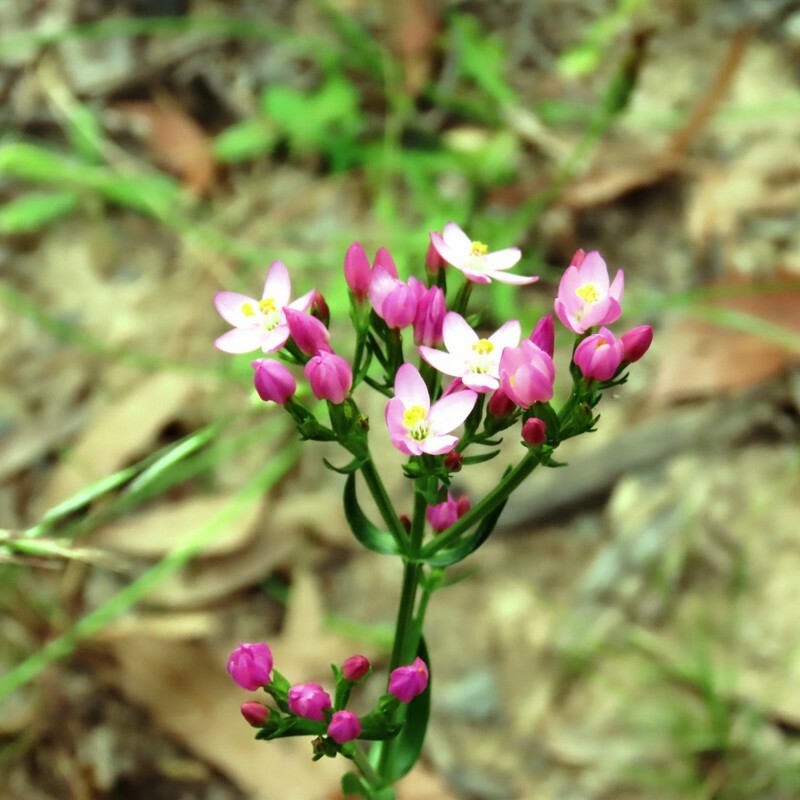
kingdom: Plantae
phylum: Tracheophyta
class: Magnoliopsida
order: Gentianales
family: Gentianaceae
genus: Centaurium
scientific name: Centaurium erythraea
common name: Common centaury
